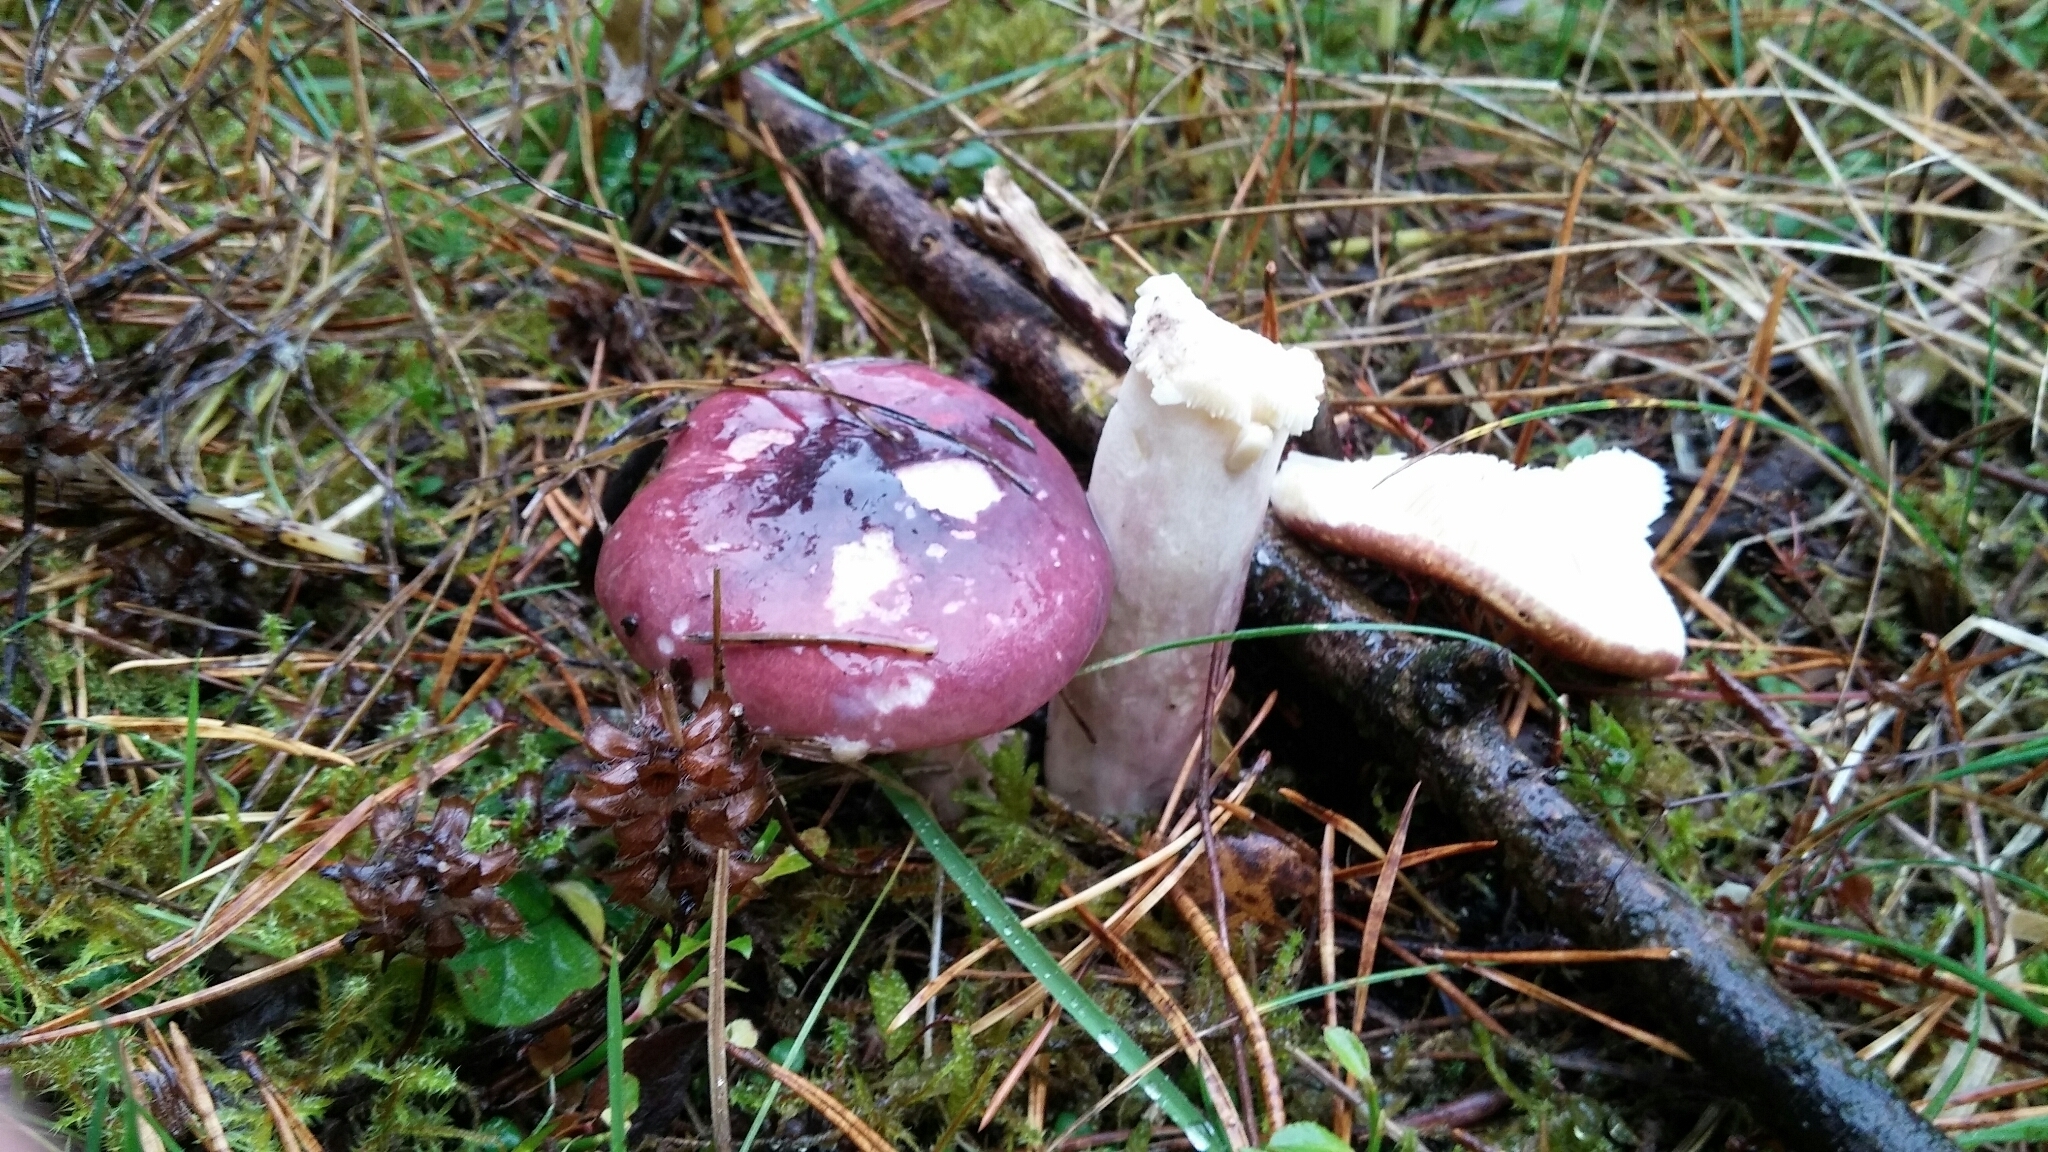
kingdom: Fungi
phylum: Basidiomycota
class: Agaricomycetes
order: Russulales
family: Russulaceae
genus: Russula
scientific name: Russula caerulea
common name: Humpback brittlegill
